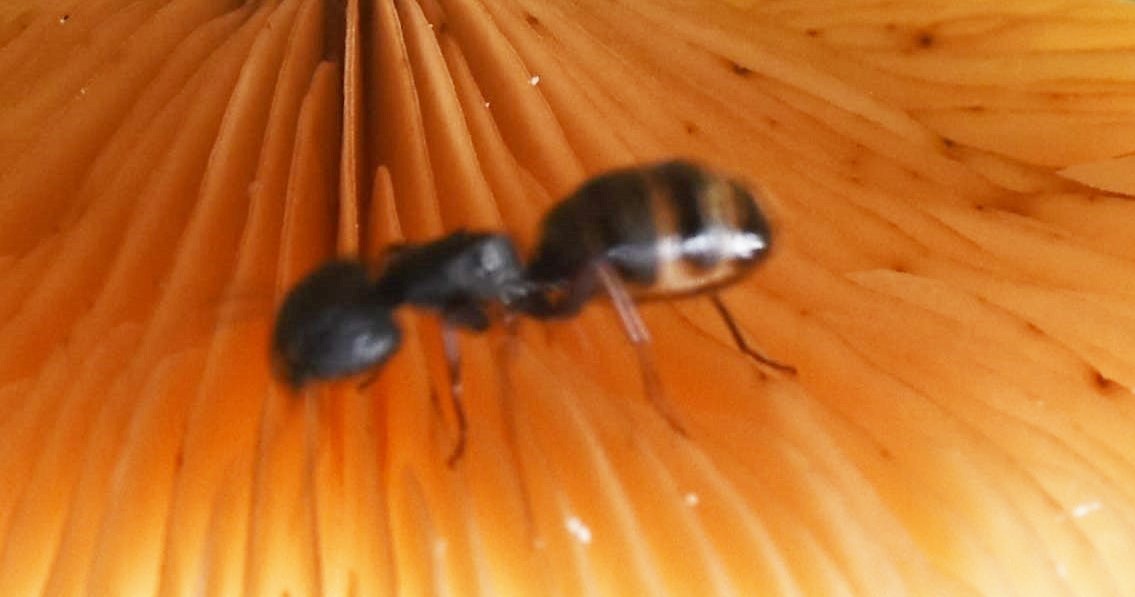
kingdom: Animalia
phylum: Arthropoda
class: Insecta
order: Hymenoptera
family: Formicidae
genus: Camponotus
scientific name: Camponotus modoc
